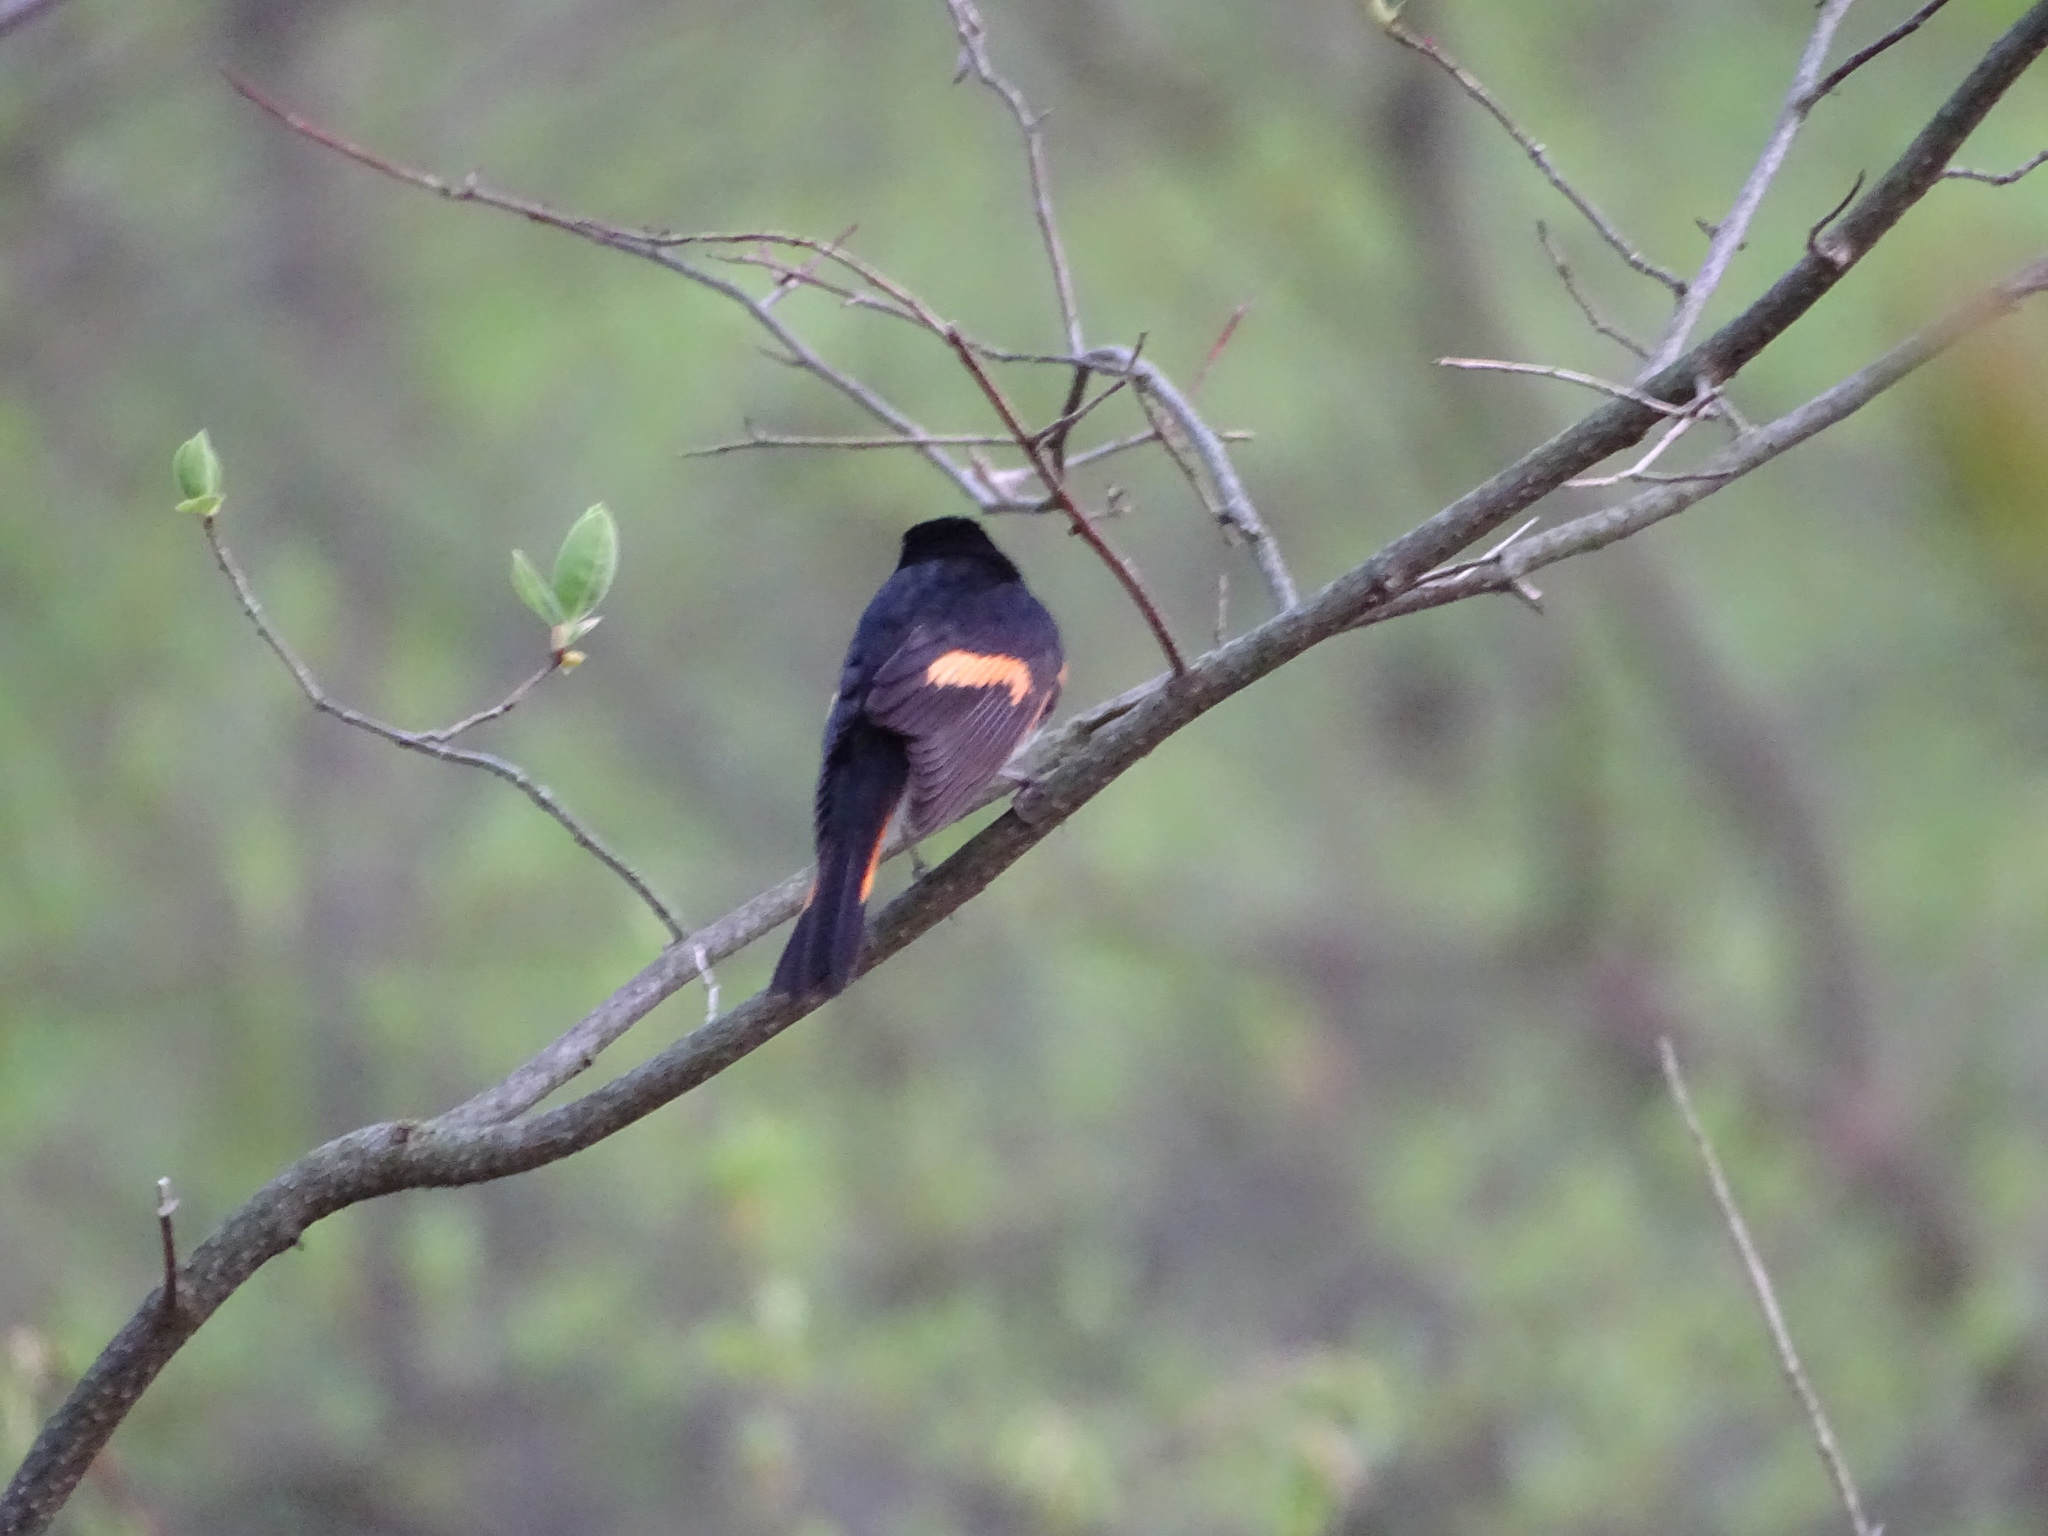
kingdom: Animalia
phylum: Chordata
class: Aves
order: Passeriformes
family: Parulidae
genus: Setophaga
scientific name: Setophaga ruticilla
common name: American redstart
